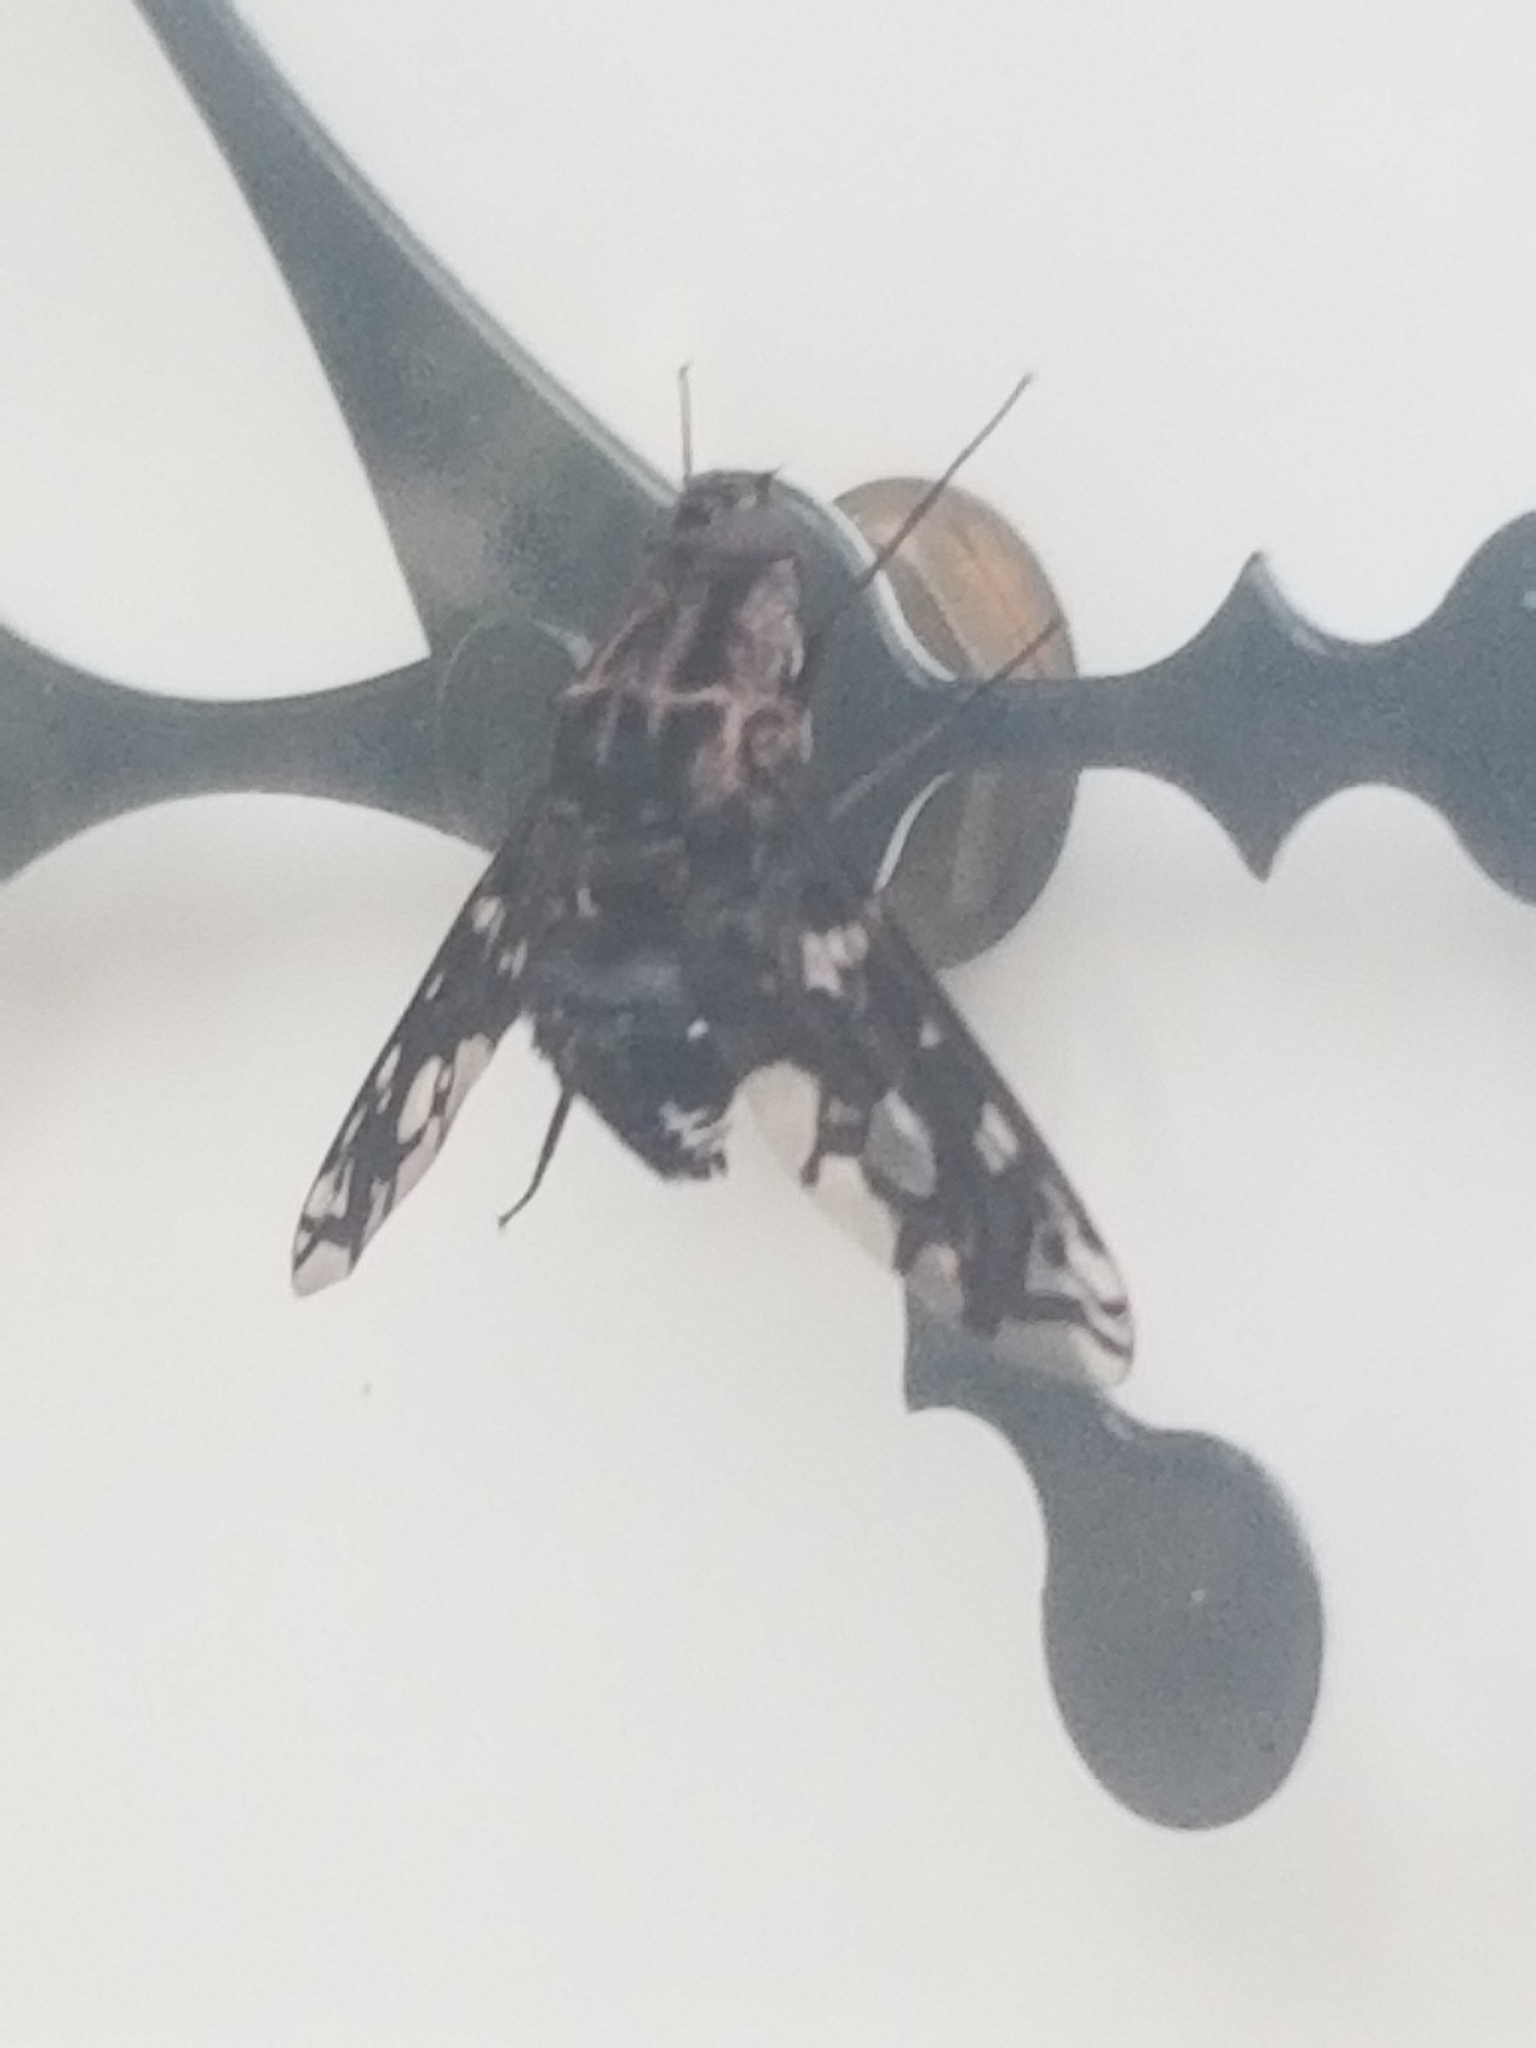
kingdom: Animalia
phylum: Arthropoda
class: Insecta
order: Diptera
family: Bombyliidae
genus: Xenox
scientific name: Xenox tigrinus
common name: Tiger bee fly
